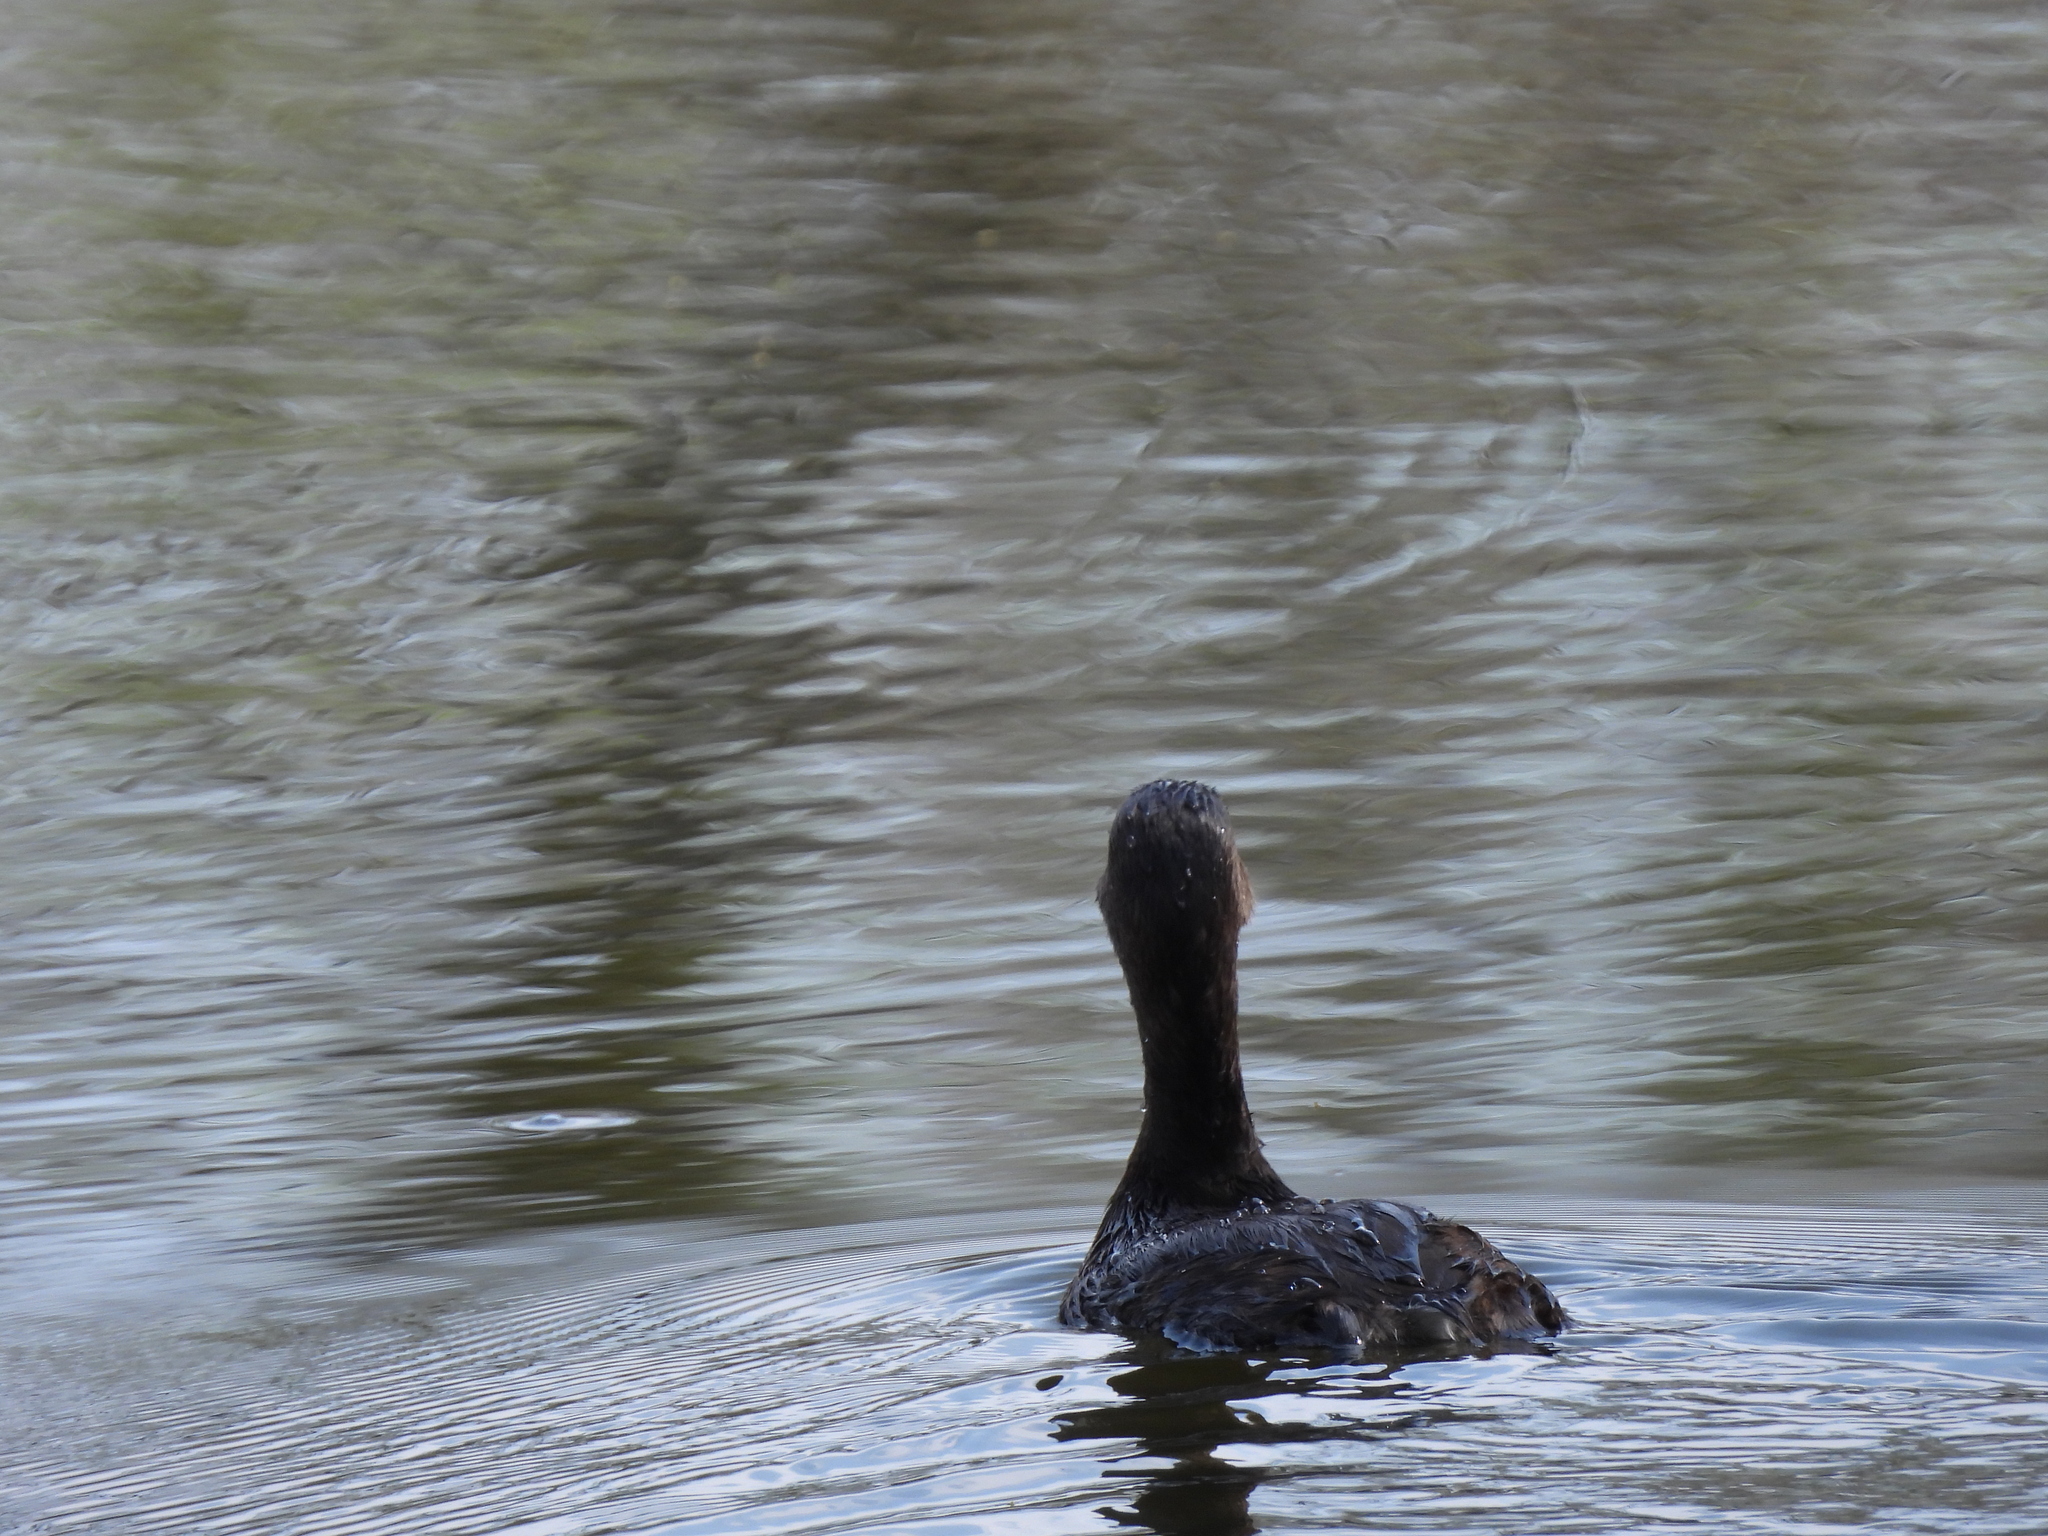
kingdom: Animalia
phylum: Chordata
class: Aves
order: Podicipediformes
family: Podicipedidae
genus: Podilymbus
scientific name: Podilymbus podiceps
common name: Pied-billed grebe
